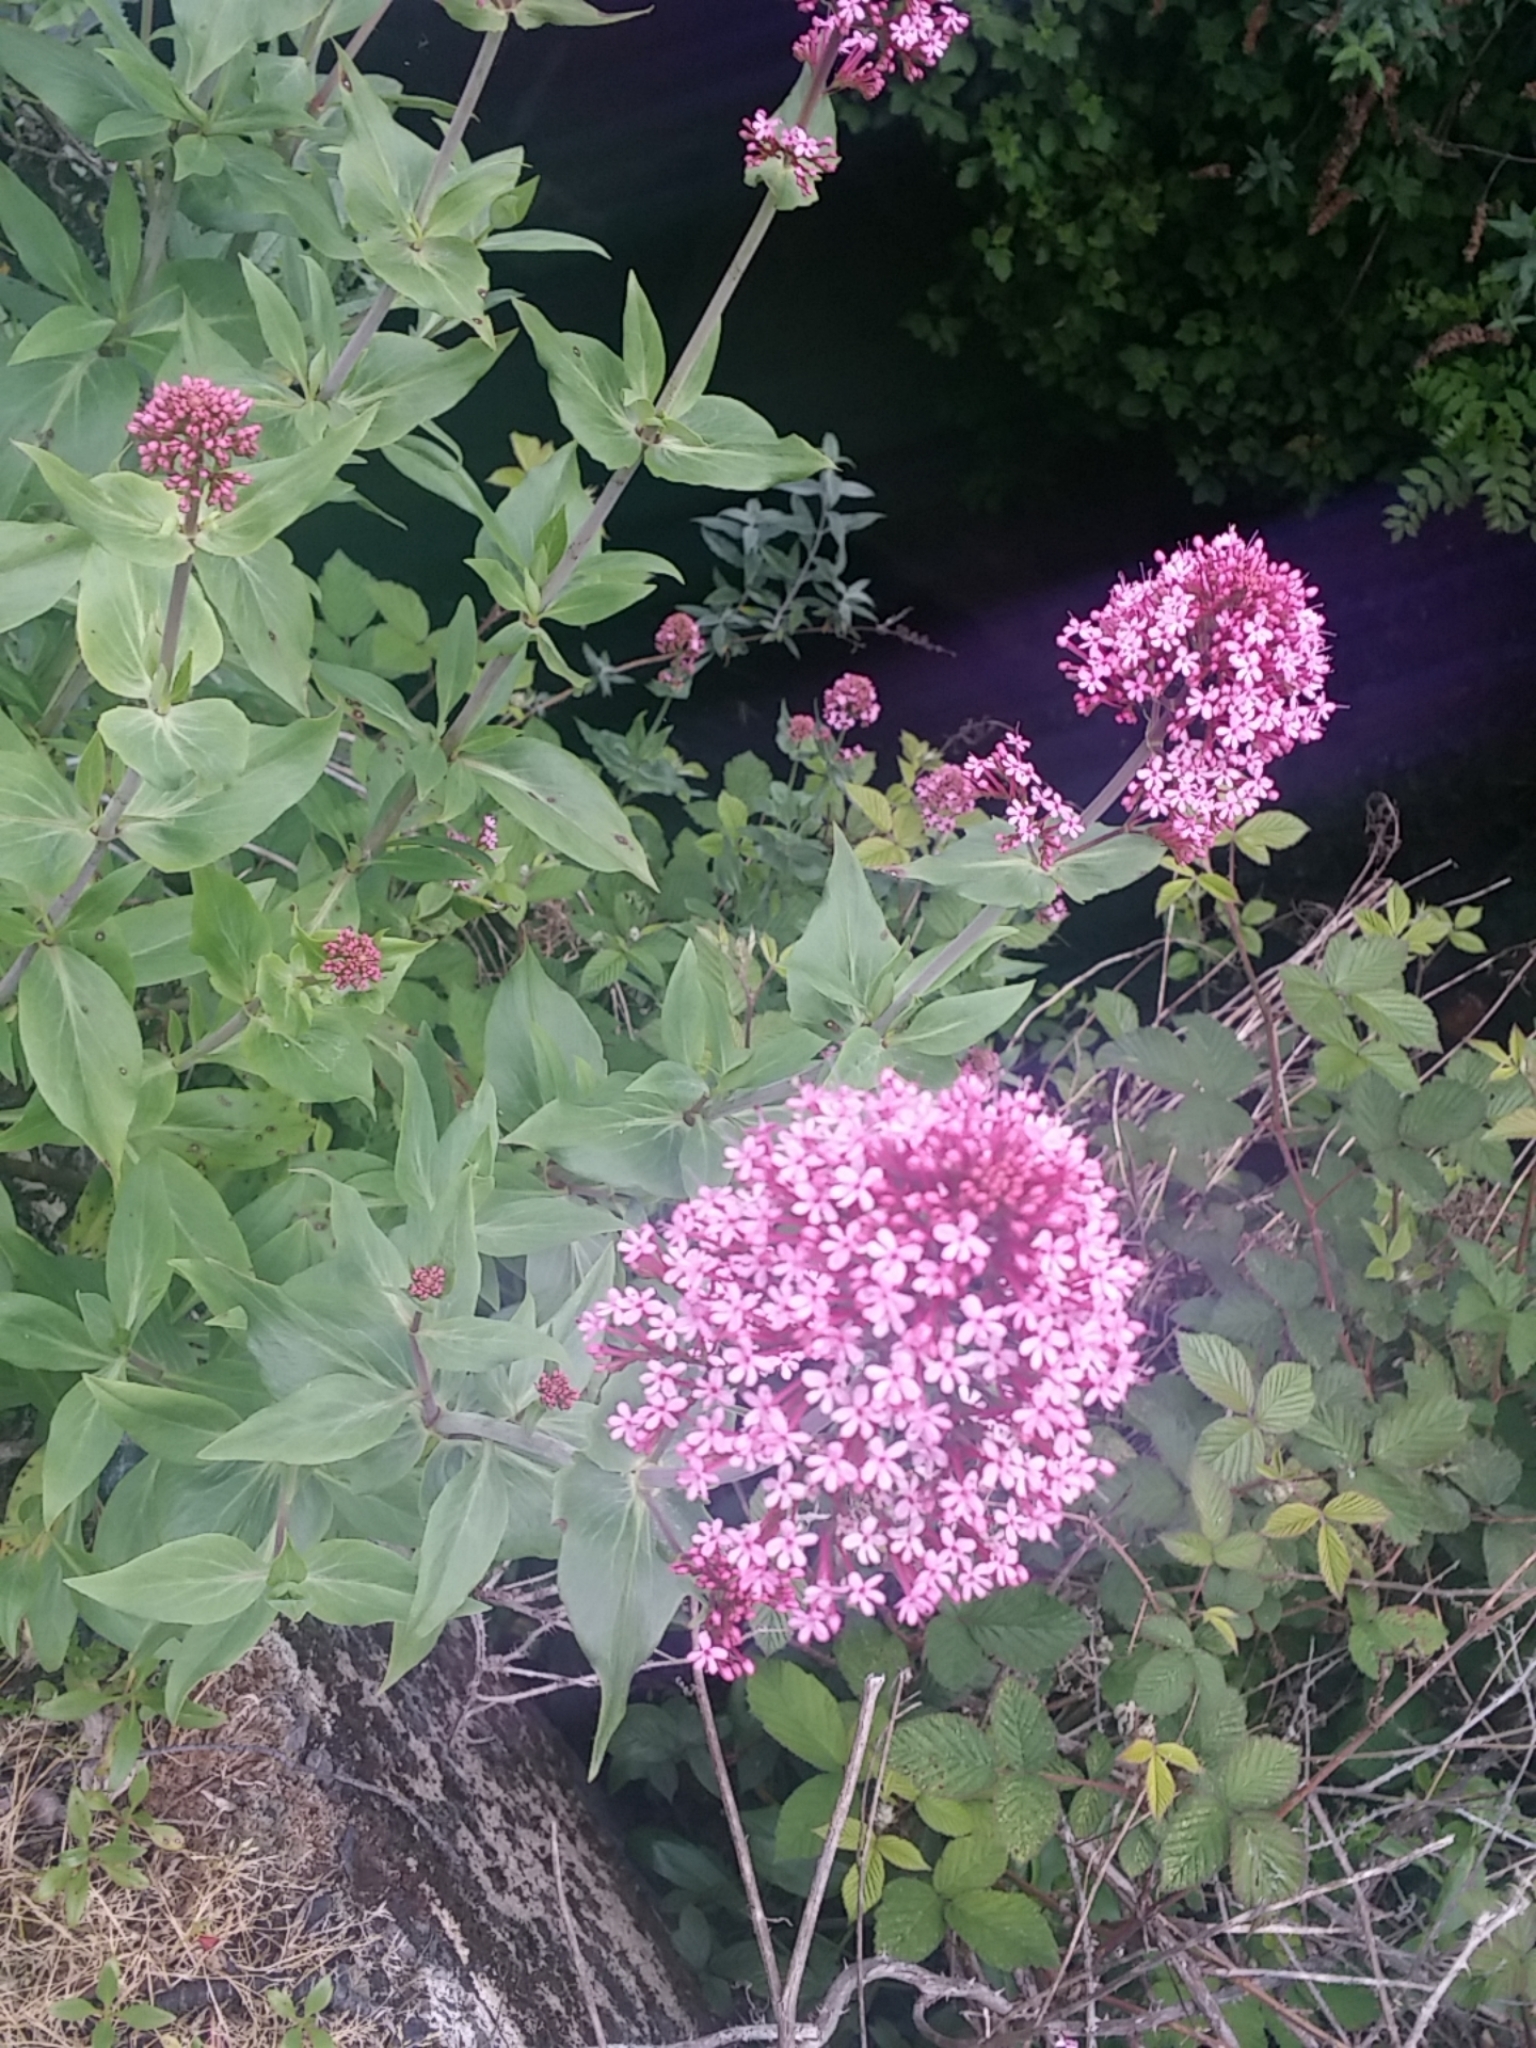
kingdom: Plantae
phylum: Tracheophyta
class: Magnoliopsida
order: Dipsacales
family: Caprifoliaceae
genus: Centranthus
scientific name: Centranthus ruber
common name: Red valerian
